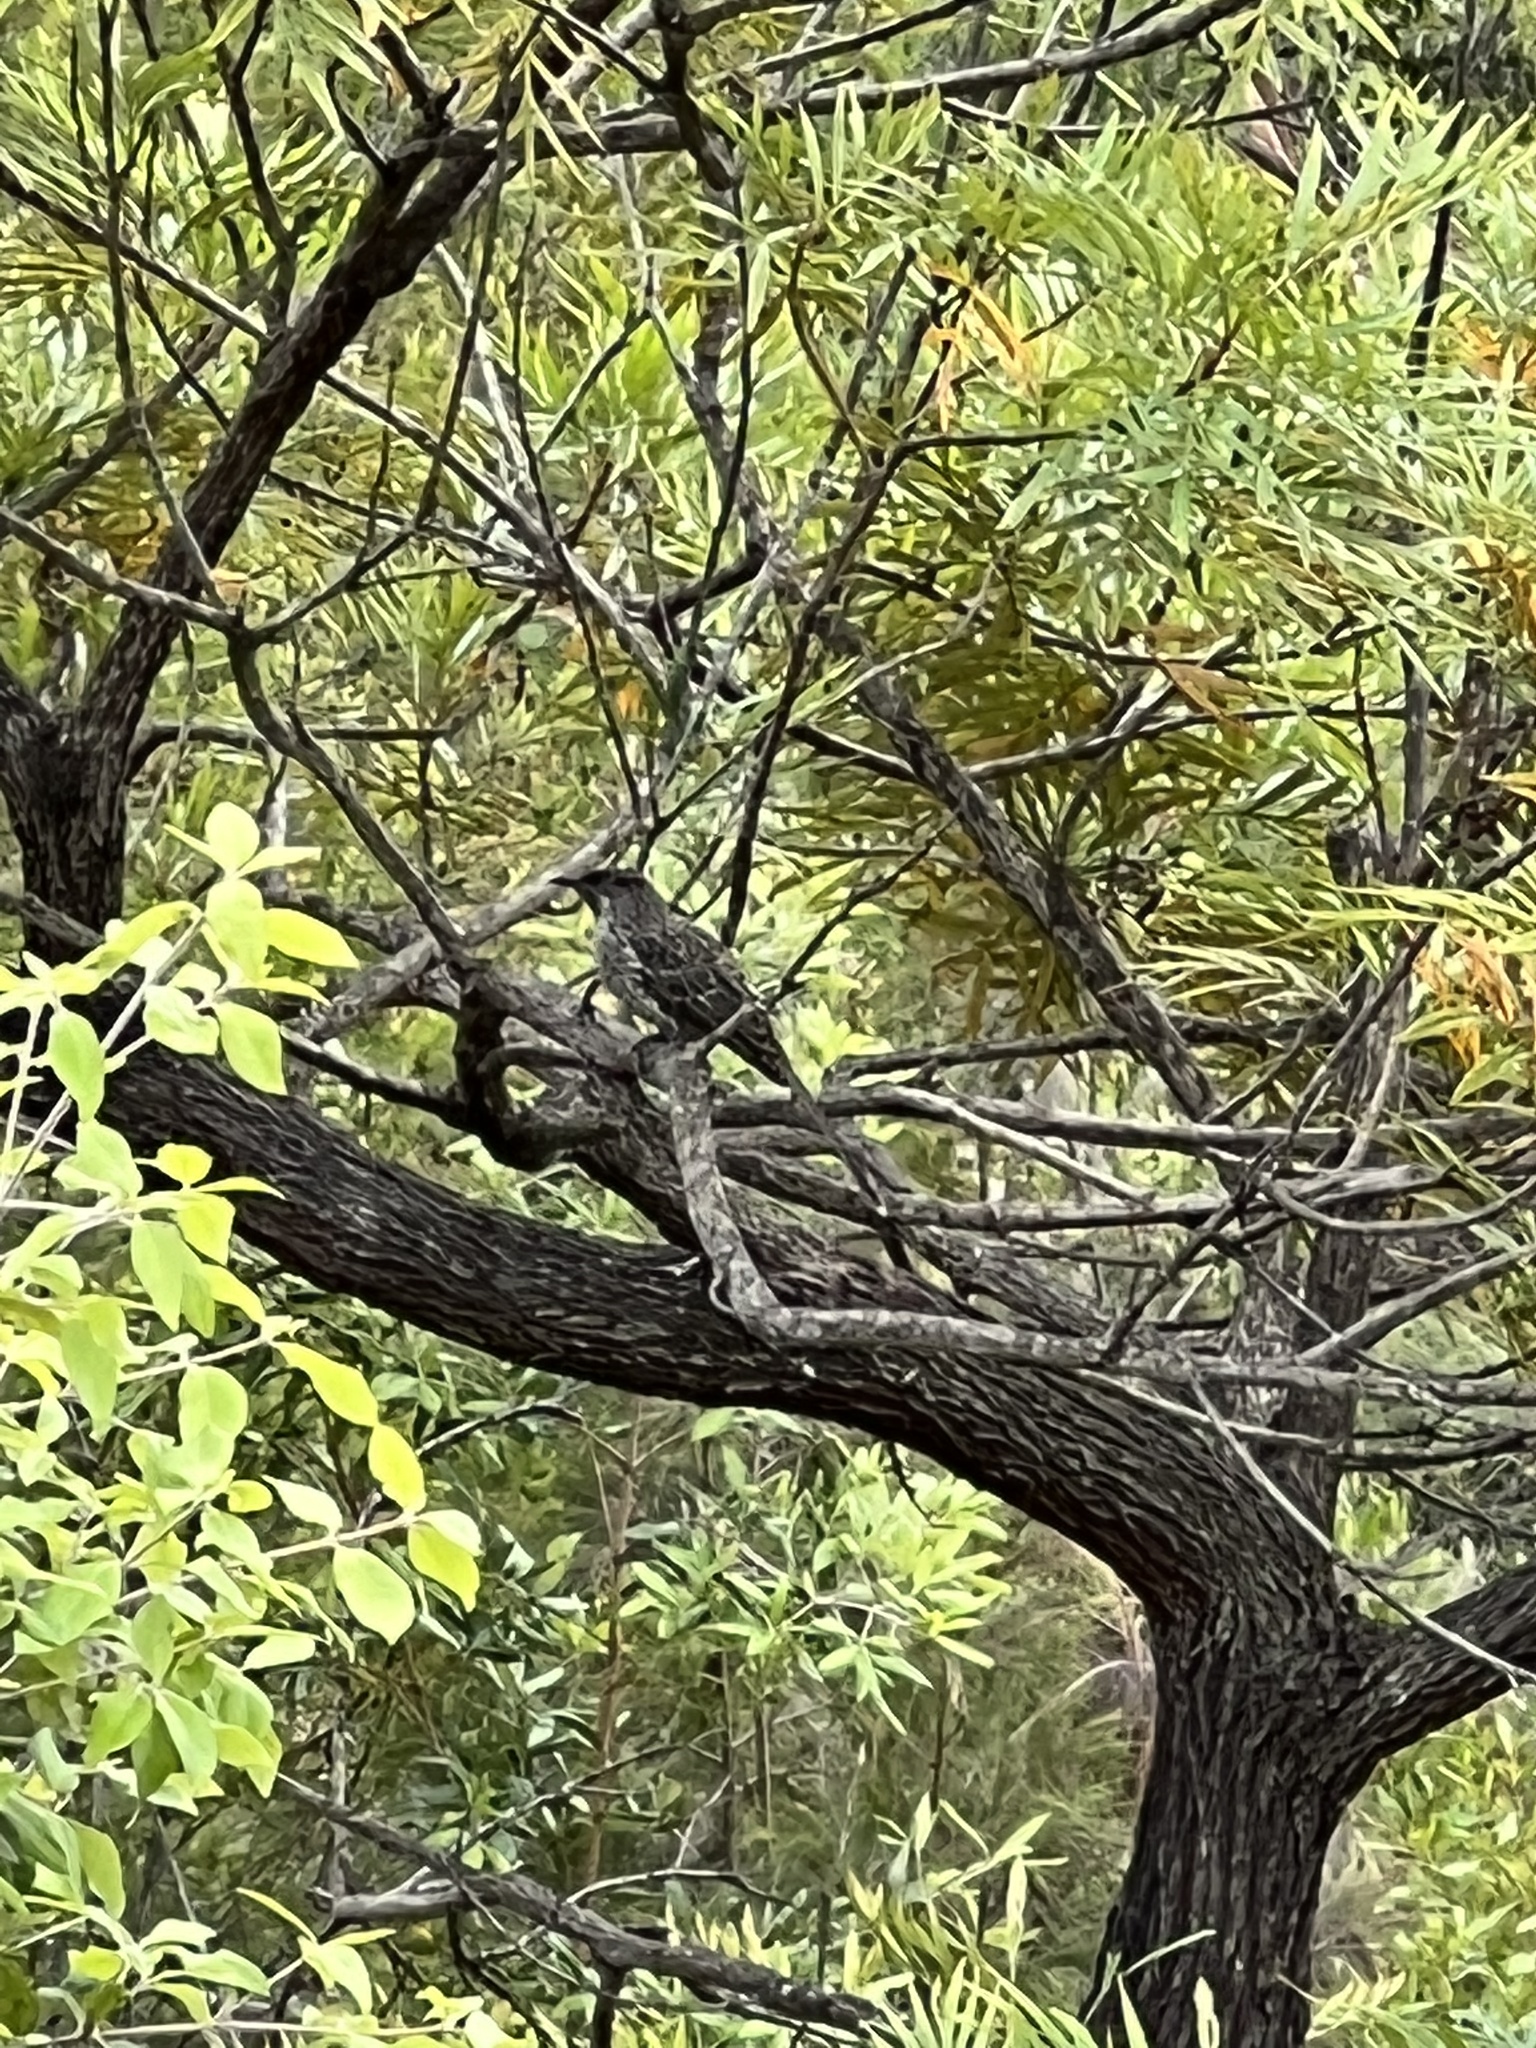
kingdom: Animalia
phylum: Chordata
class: Aves
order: Passeriformes
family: Meliphagidae
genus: Anthochaera
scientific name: Anthochaera chrysoptera
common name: Little wattlebird
